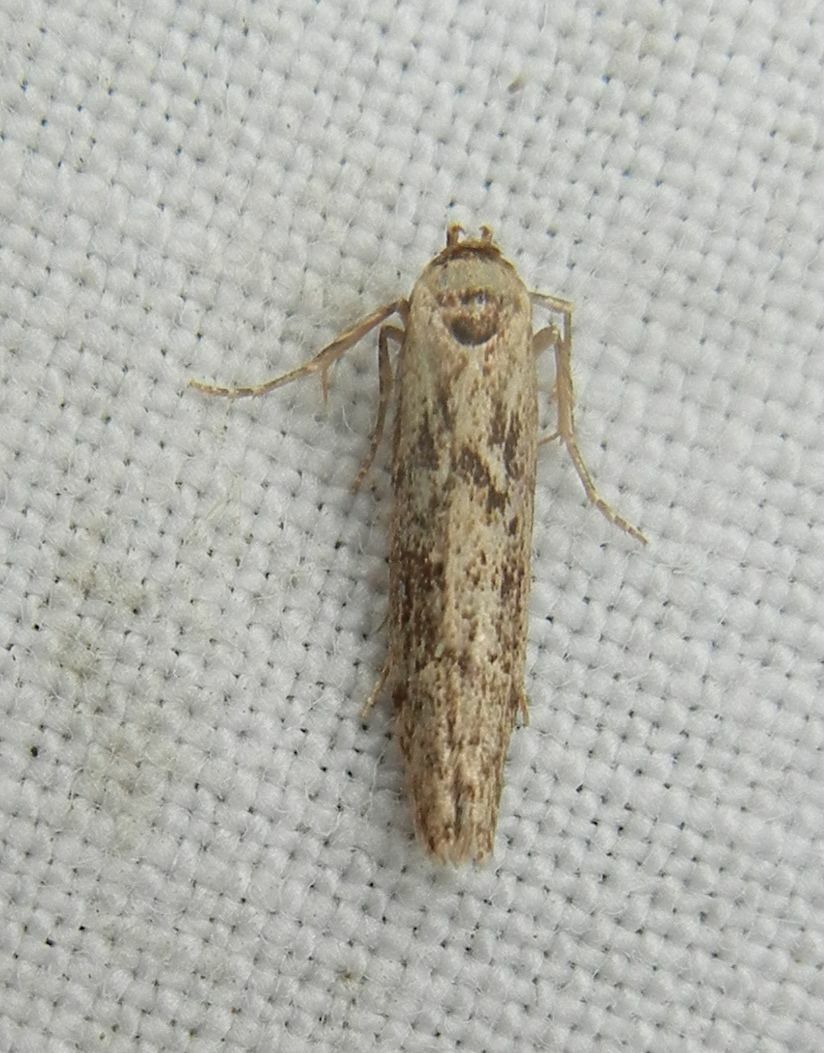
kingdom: Animalia
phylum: Arthropoda
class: Insecta
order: Lepidoptera
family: Blastobasidae
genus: Blastobasis
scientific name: Blastobasis adustella
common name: Dingy dowd
